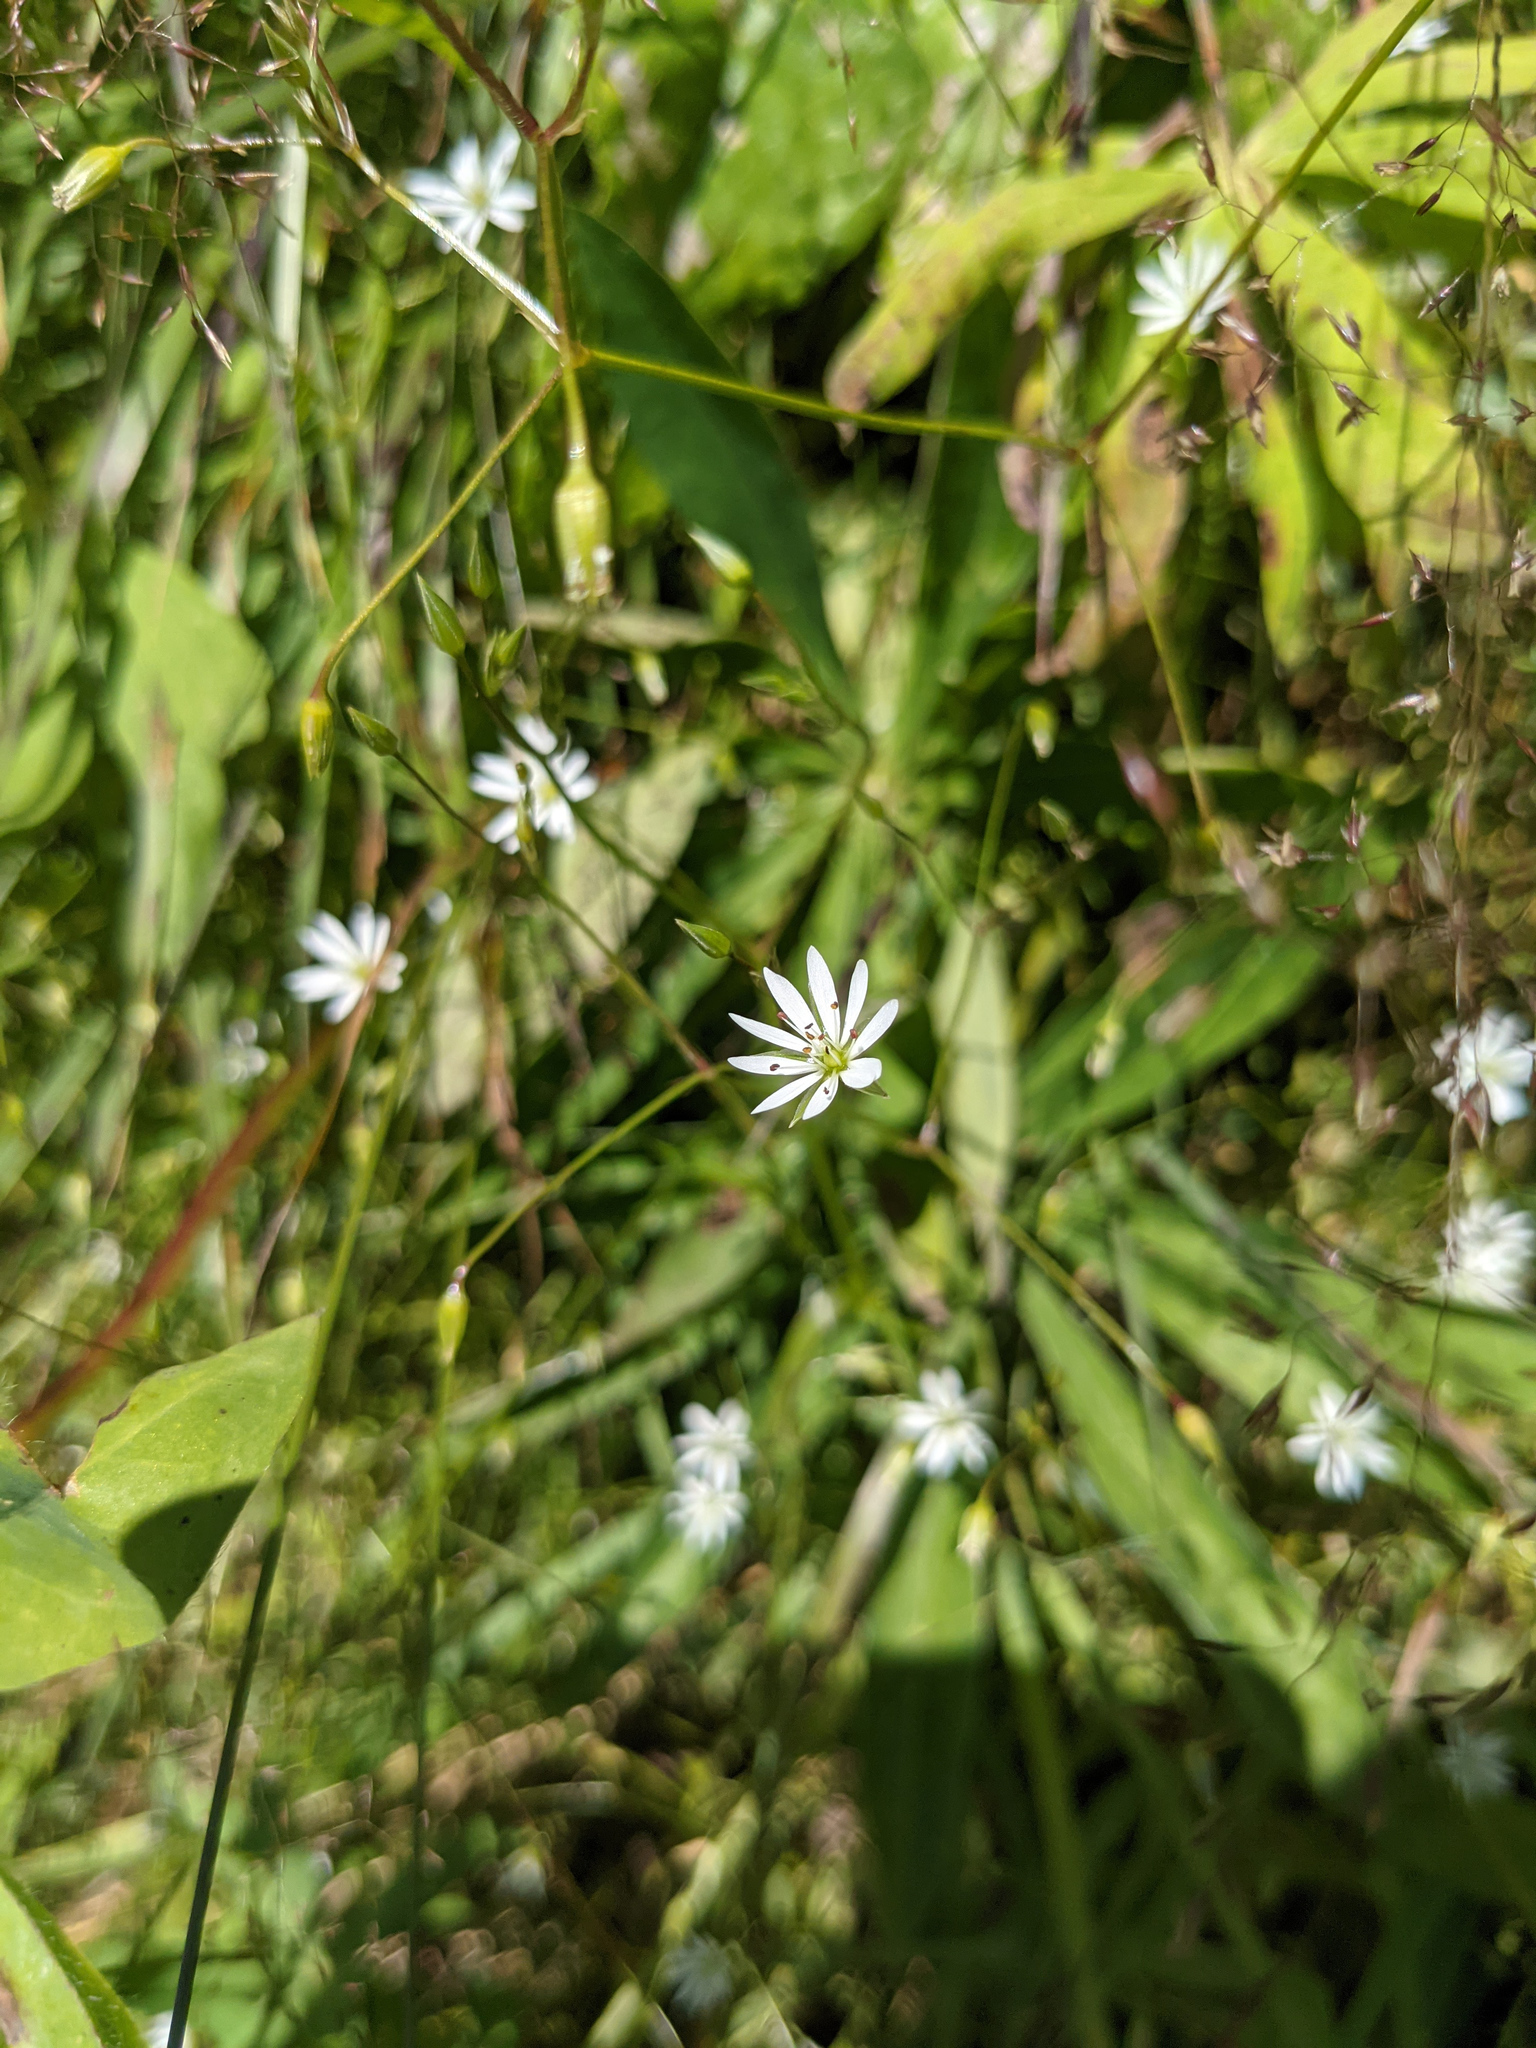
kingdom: Plantae
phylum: Tracheophyta
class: Magnoliopsida
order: Caryophyllales
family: Caryophyllaceae
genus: Stellaria
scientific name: Stellaria graminea
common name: Grass-like starwort
